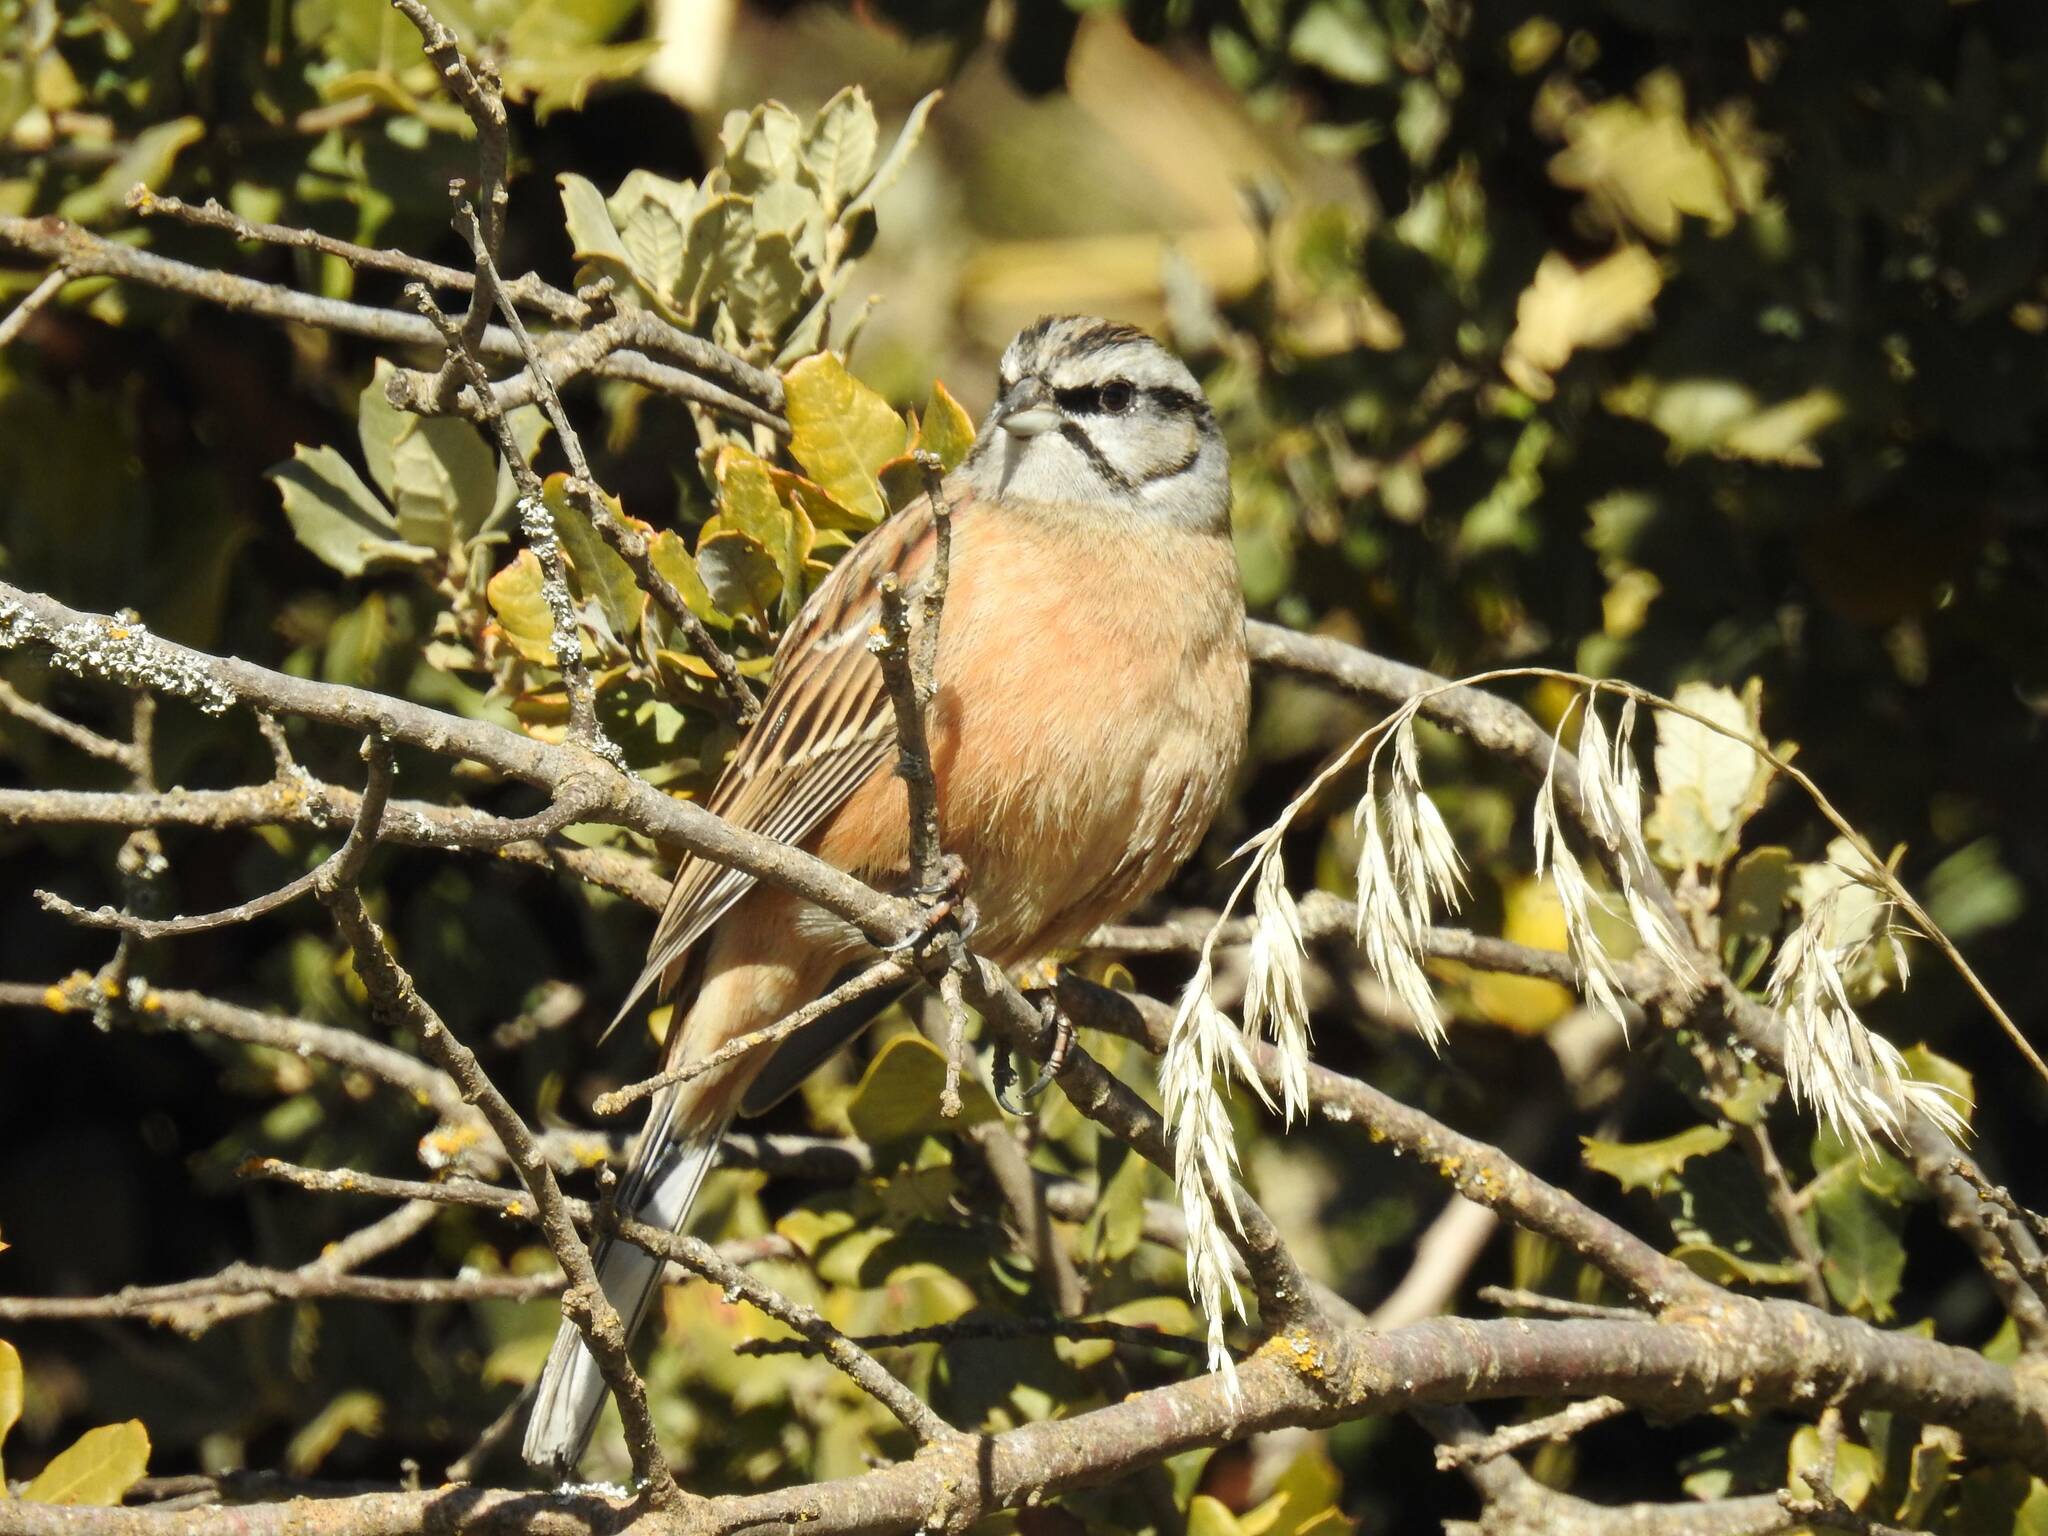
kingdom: Animalia
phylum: Chordata
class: Aves
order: Passeriformes
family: Emberizidae
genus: Emberiza
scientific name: Emberiza cia
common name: Rock bunting
